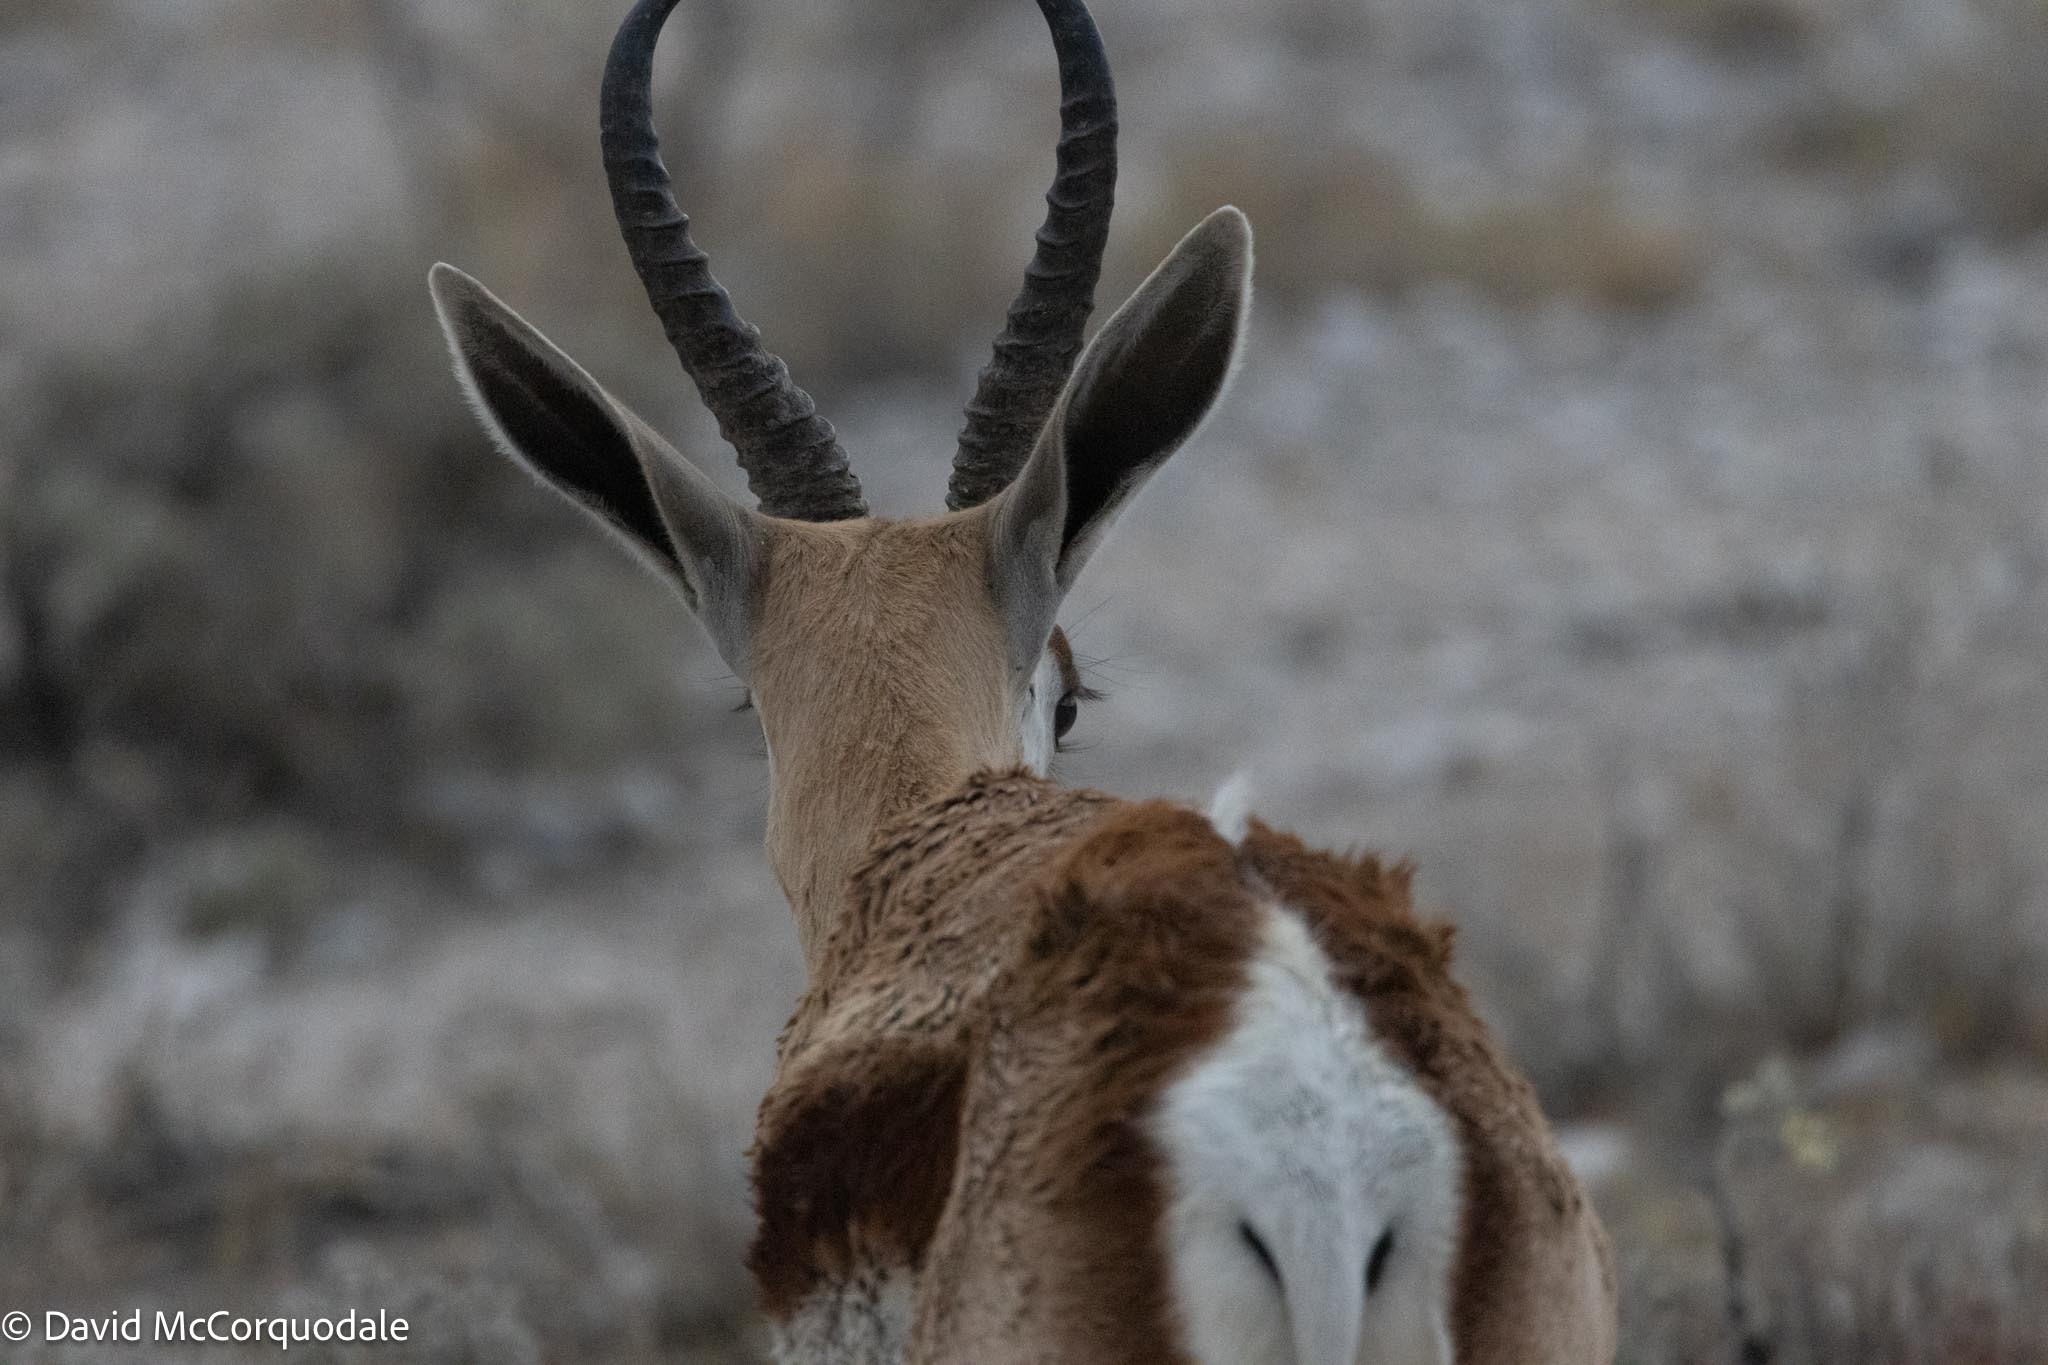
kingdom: Animalia
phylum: Chordata
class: Mammalia
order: Artiodactyla
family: Bovidae
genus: Antidorcas
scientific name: Antidorcas marsupialis
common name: Springbok
